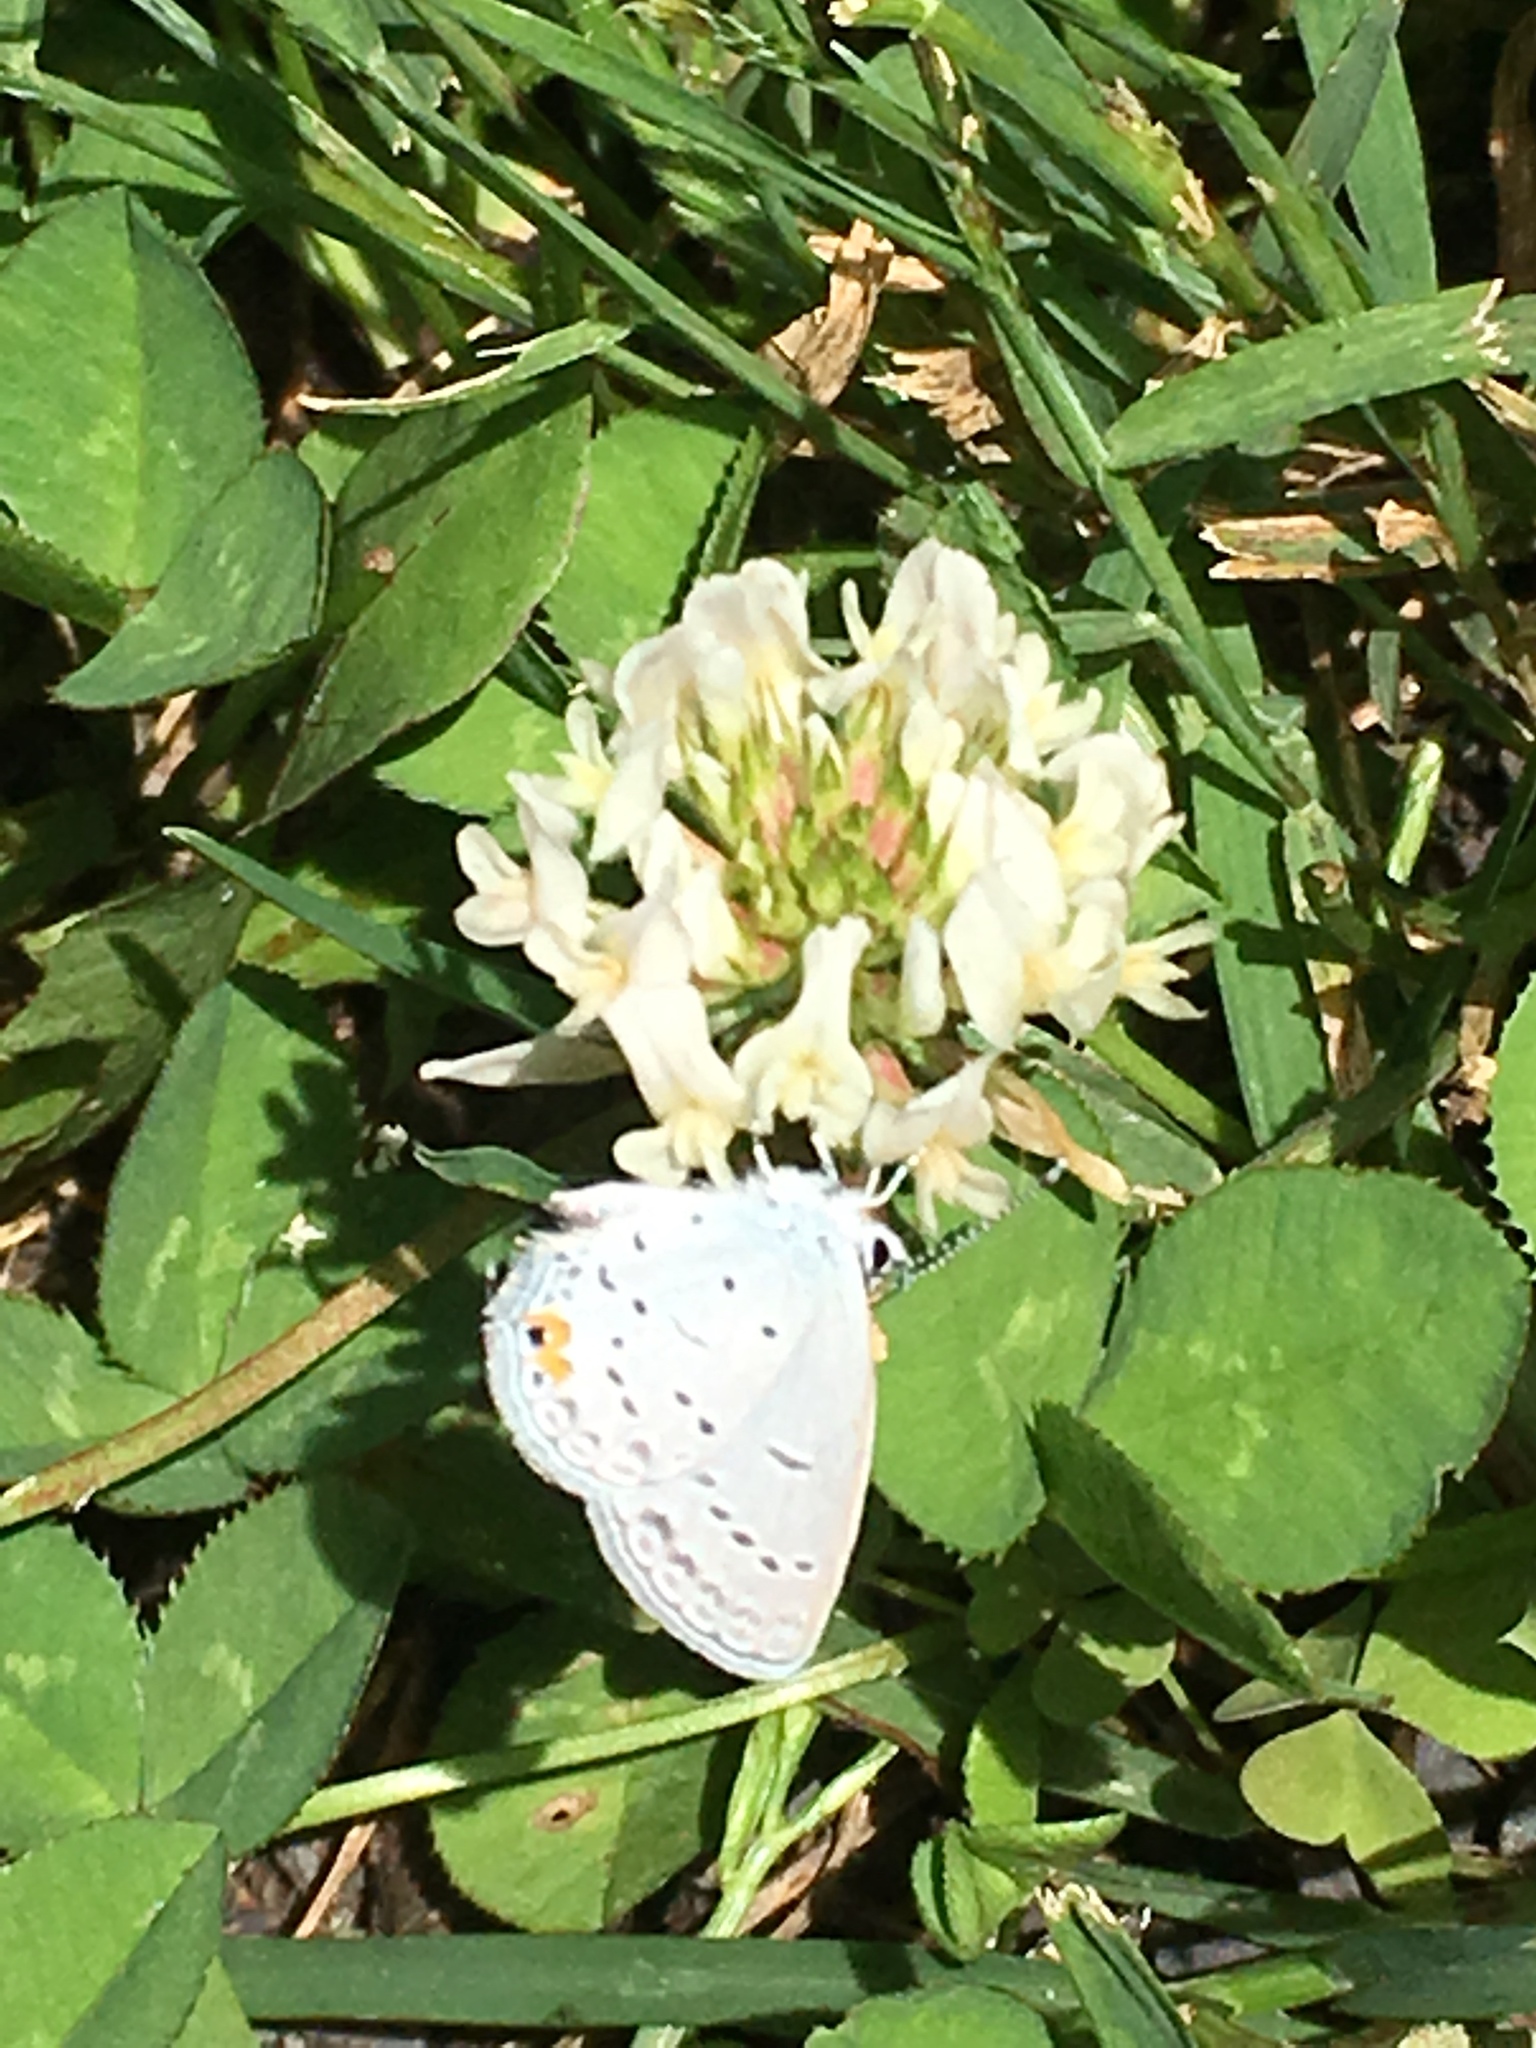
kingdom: Plantae
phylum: Tracheophyta
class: Magnoliopsida
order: Fabales
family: Fabaceae
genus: Trifolium
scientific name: Trifolium repens
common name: White clover
